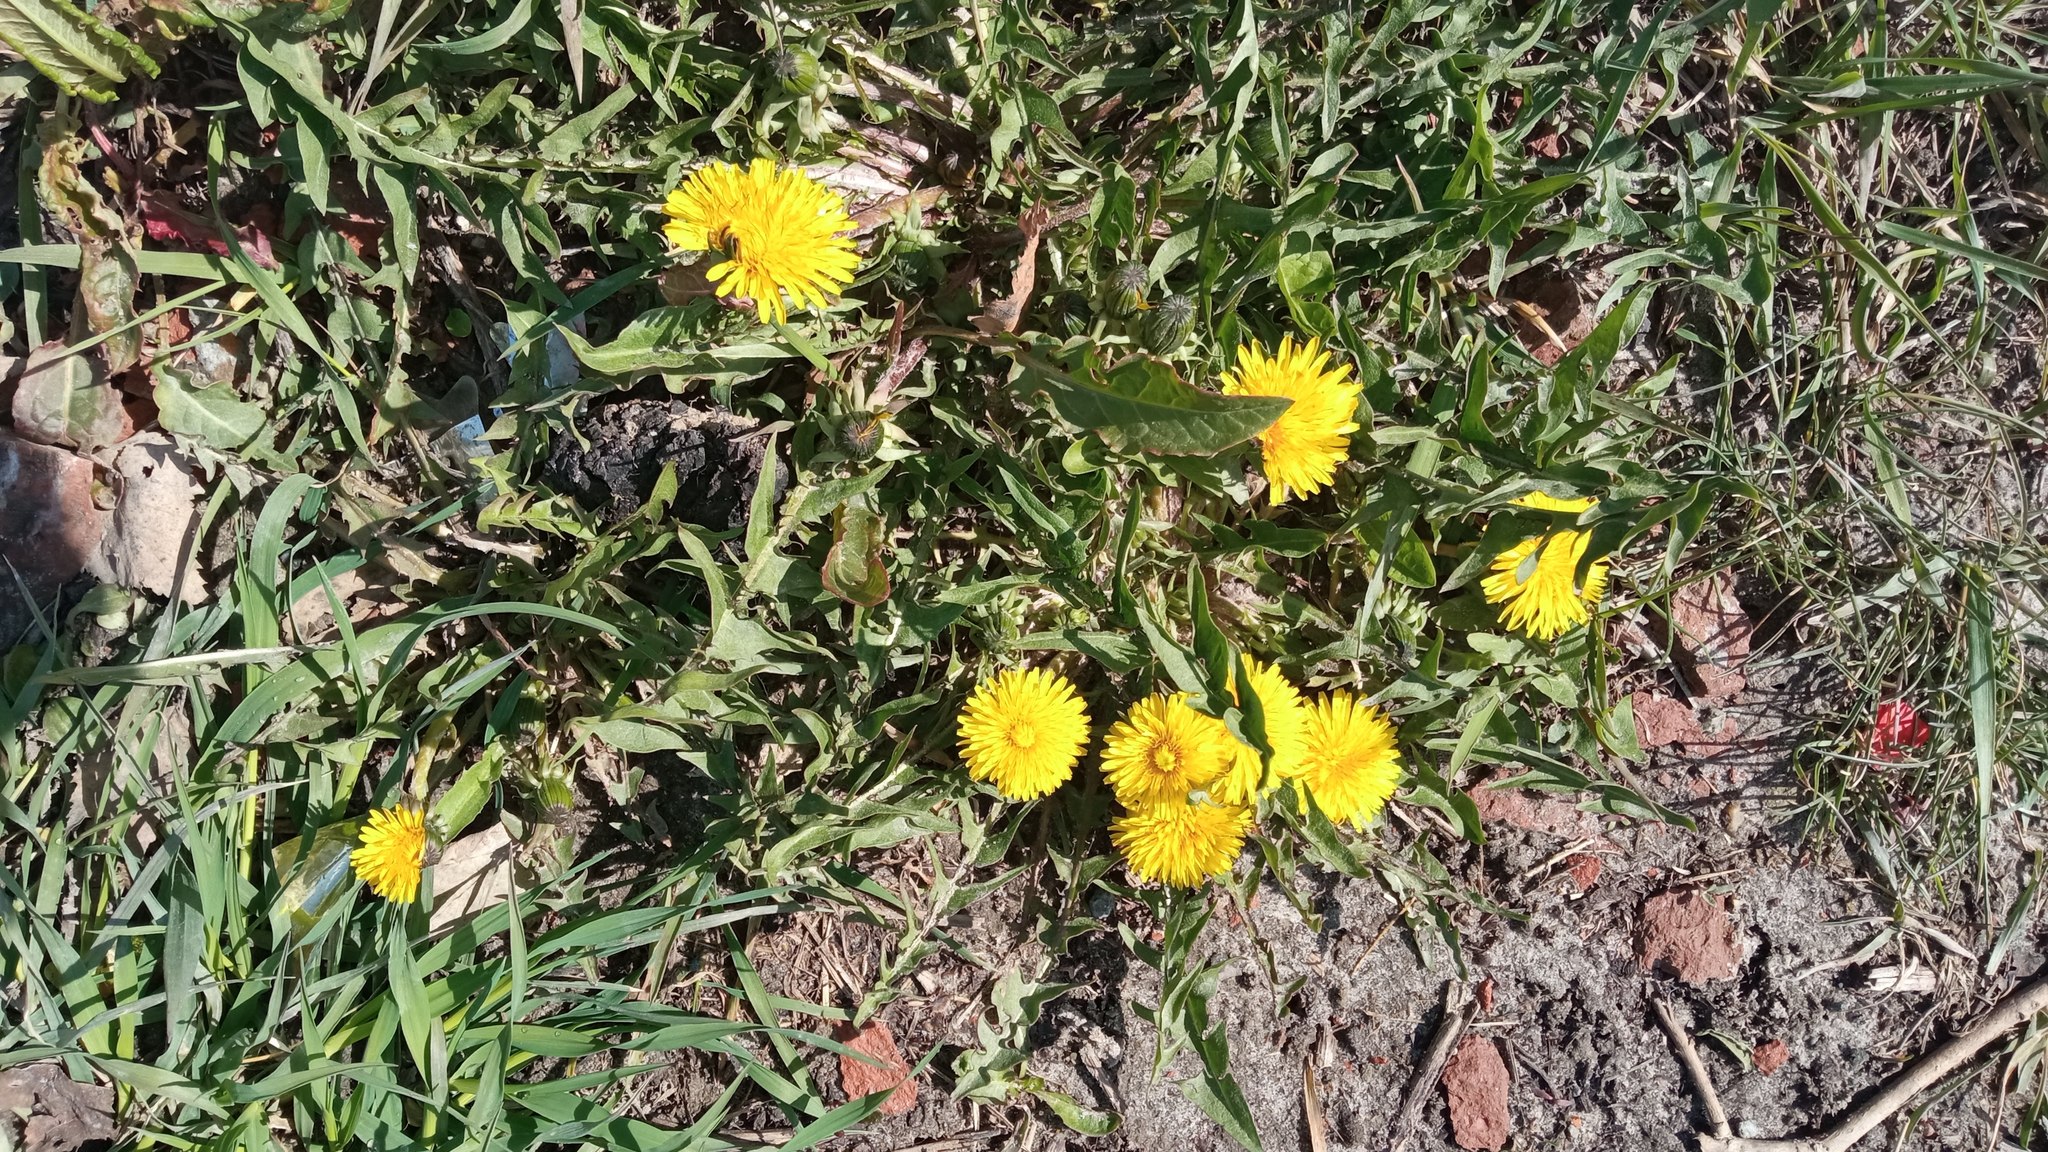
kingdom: Plantae
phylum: Tracheophyta
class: Magnoliopsida
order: Asterales
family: Asteraceae
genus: Taraxacum
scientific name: Taraxacum officinale
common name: Common dandelion
